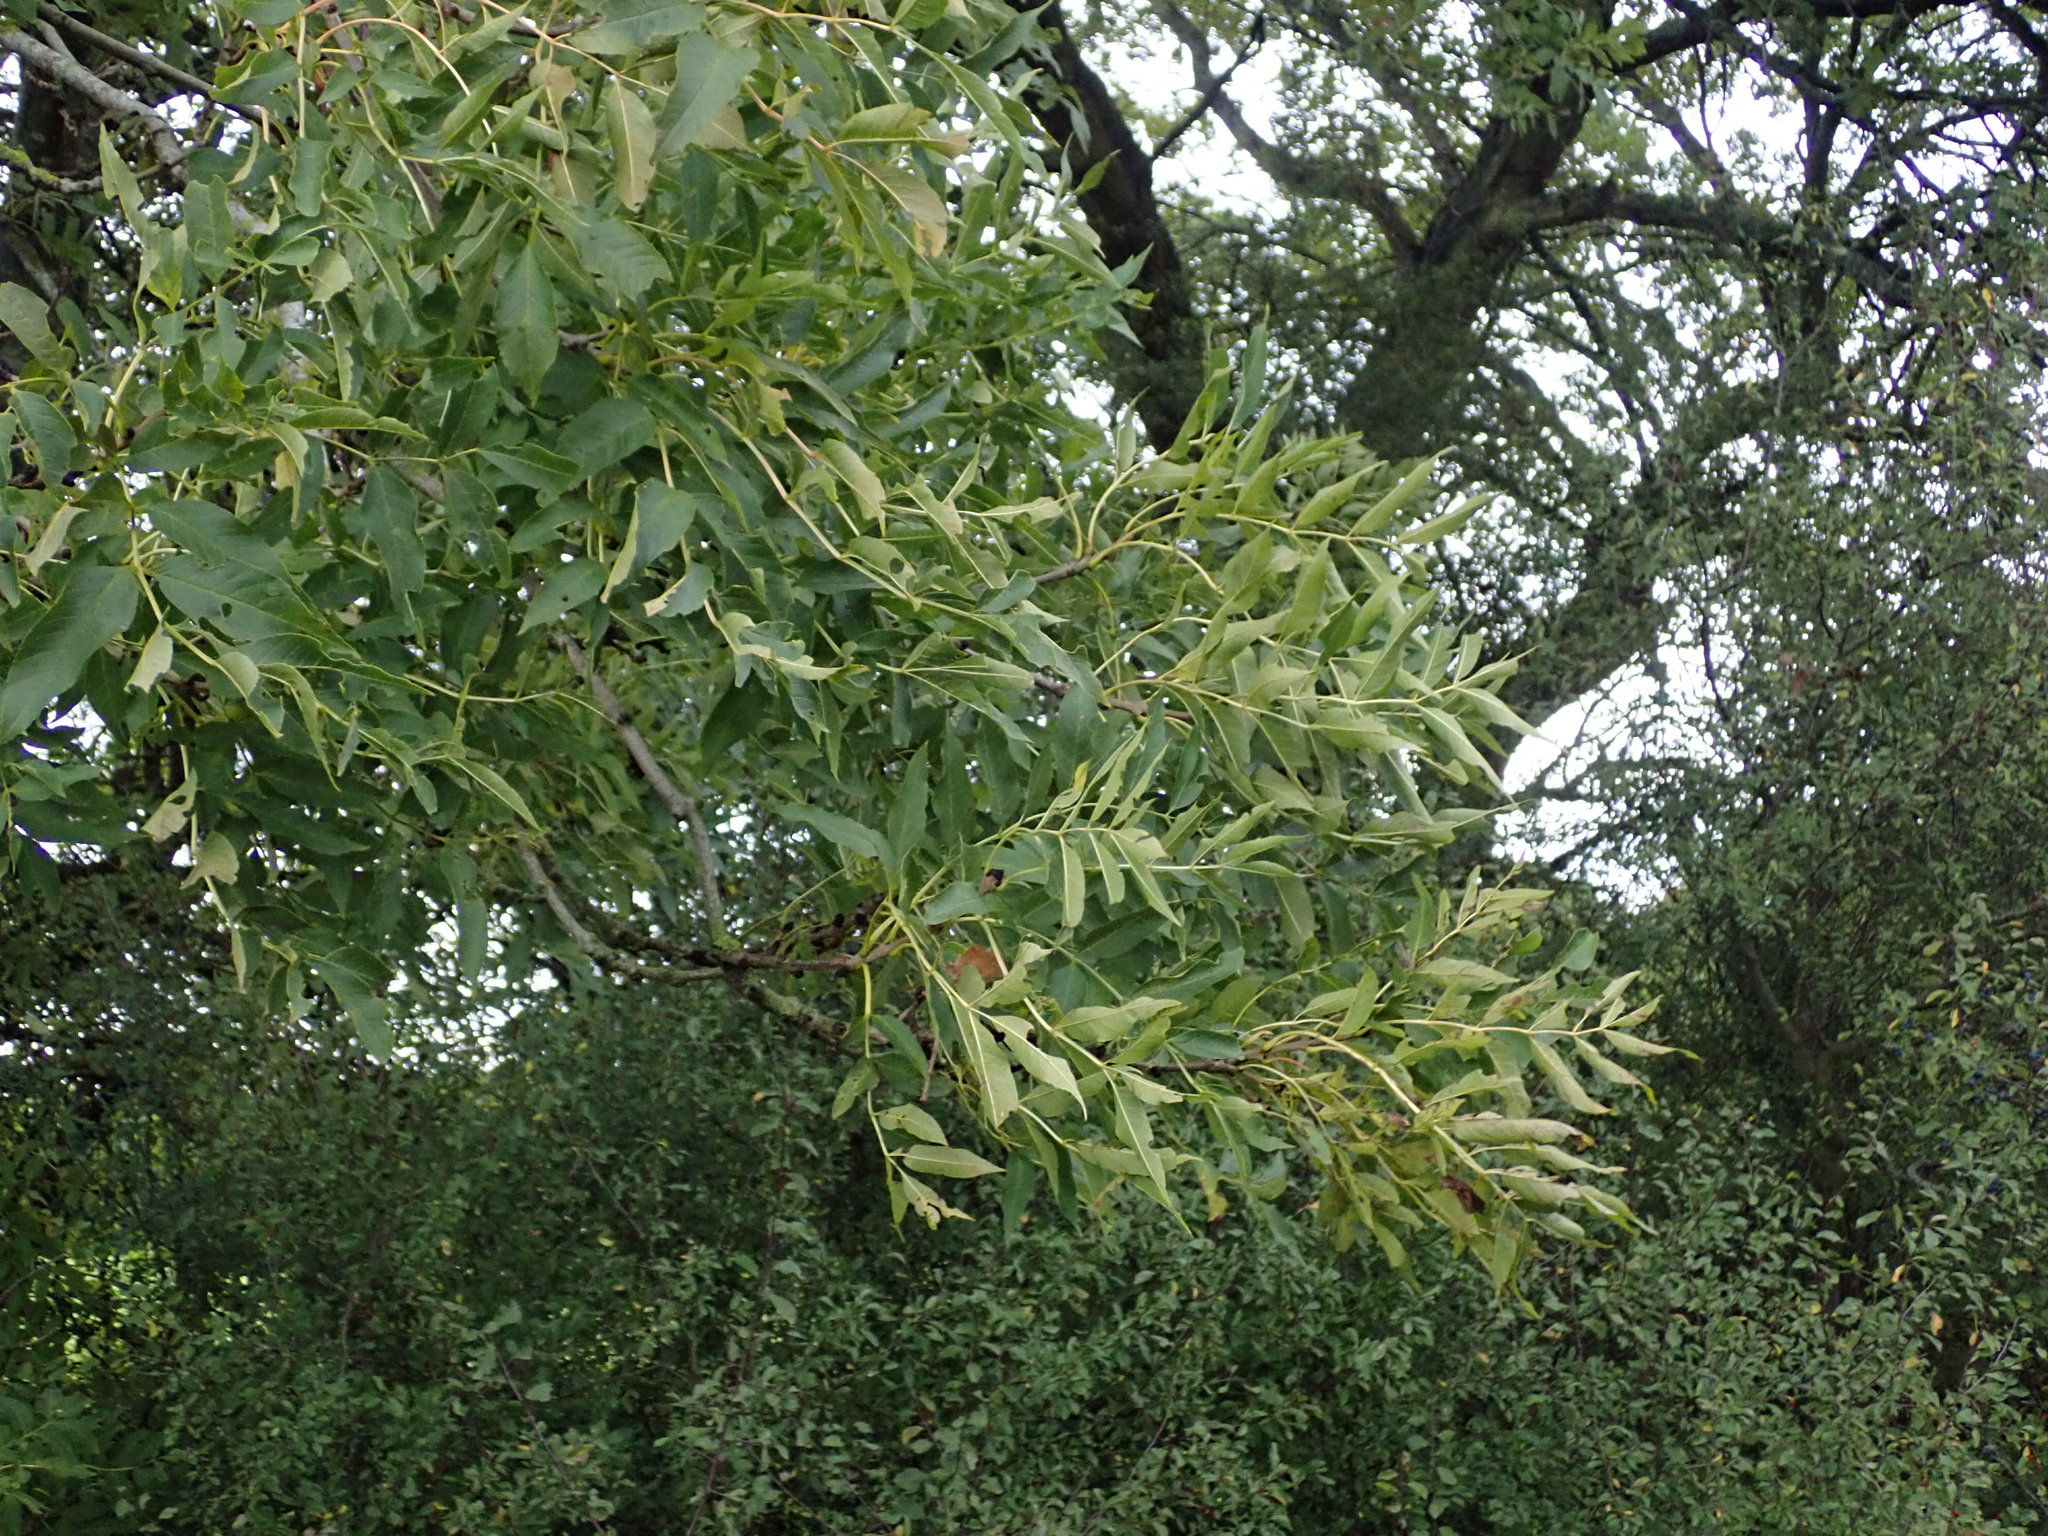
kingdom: Plantae
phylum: Tracheophyta
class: Magnoliopsida
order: Lamiales
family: Oleaceae
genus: Fraxinus
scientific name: Fraxinus excelsior
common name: European ash
